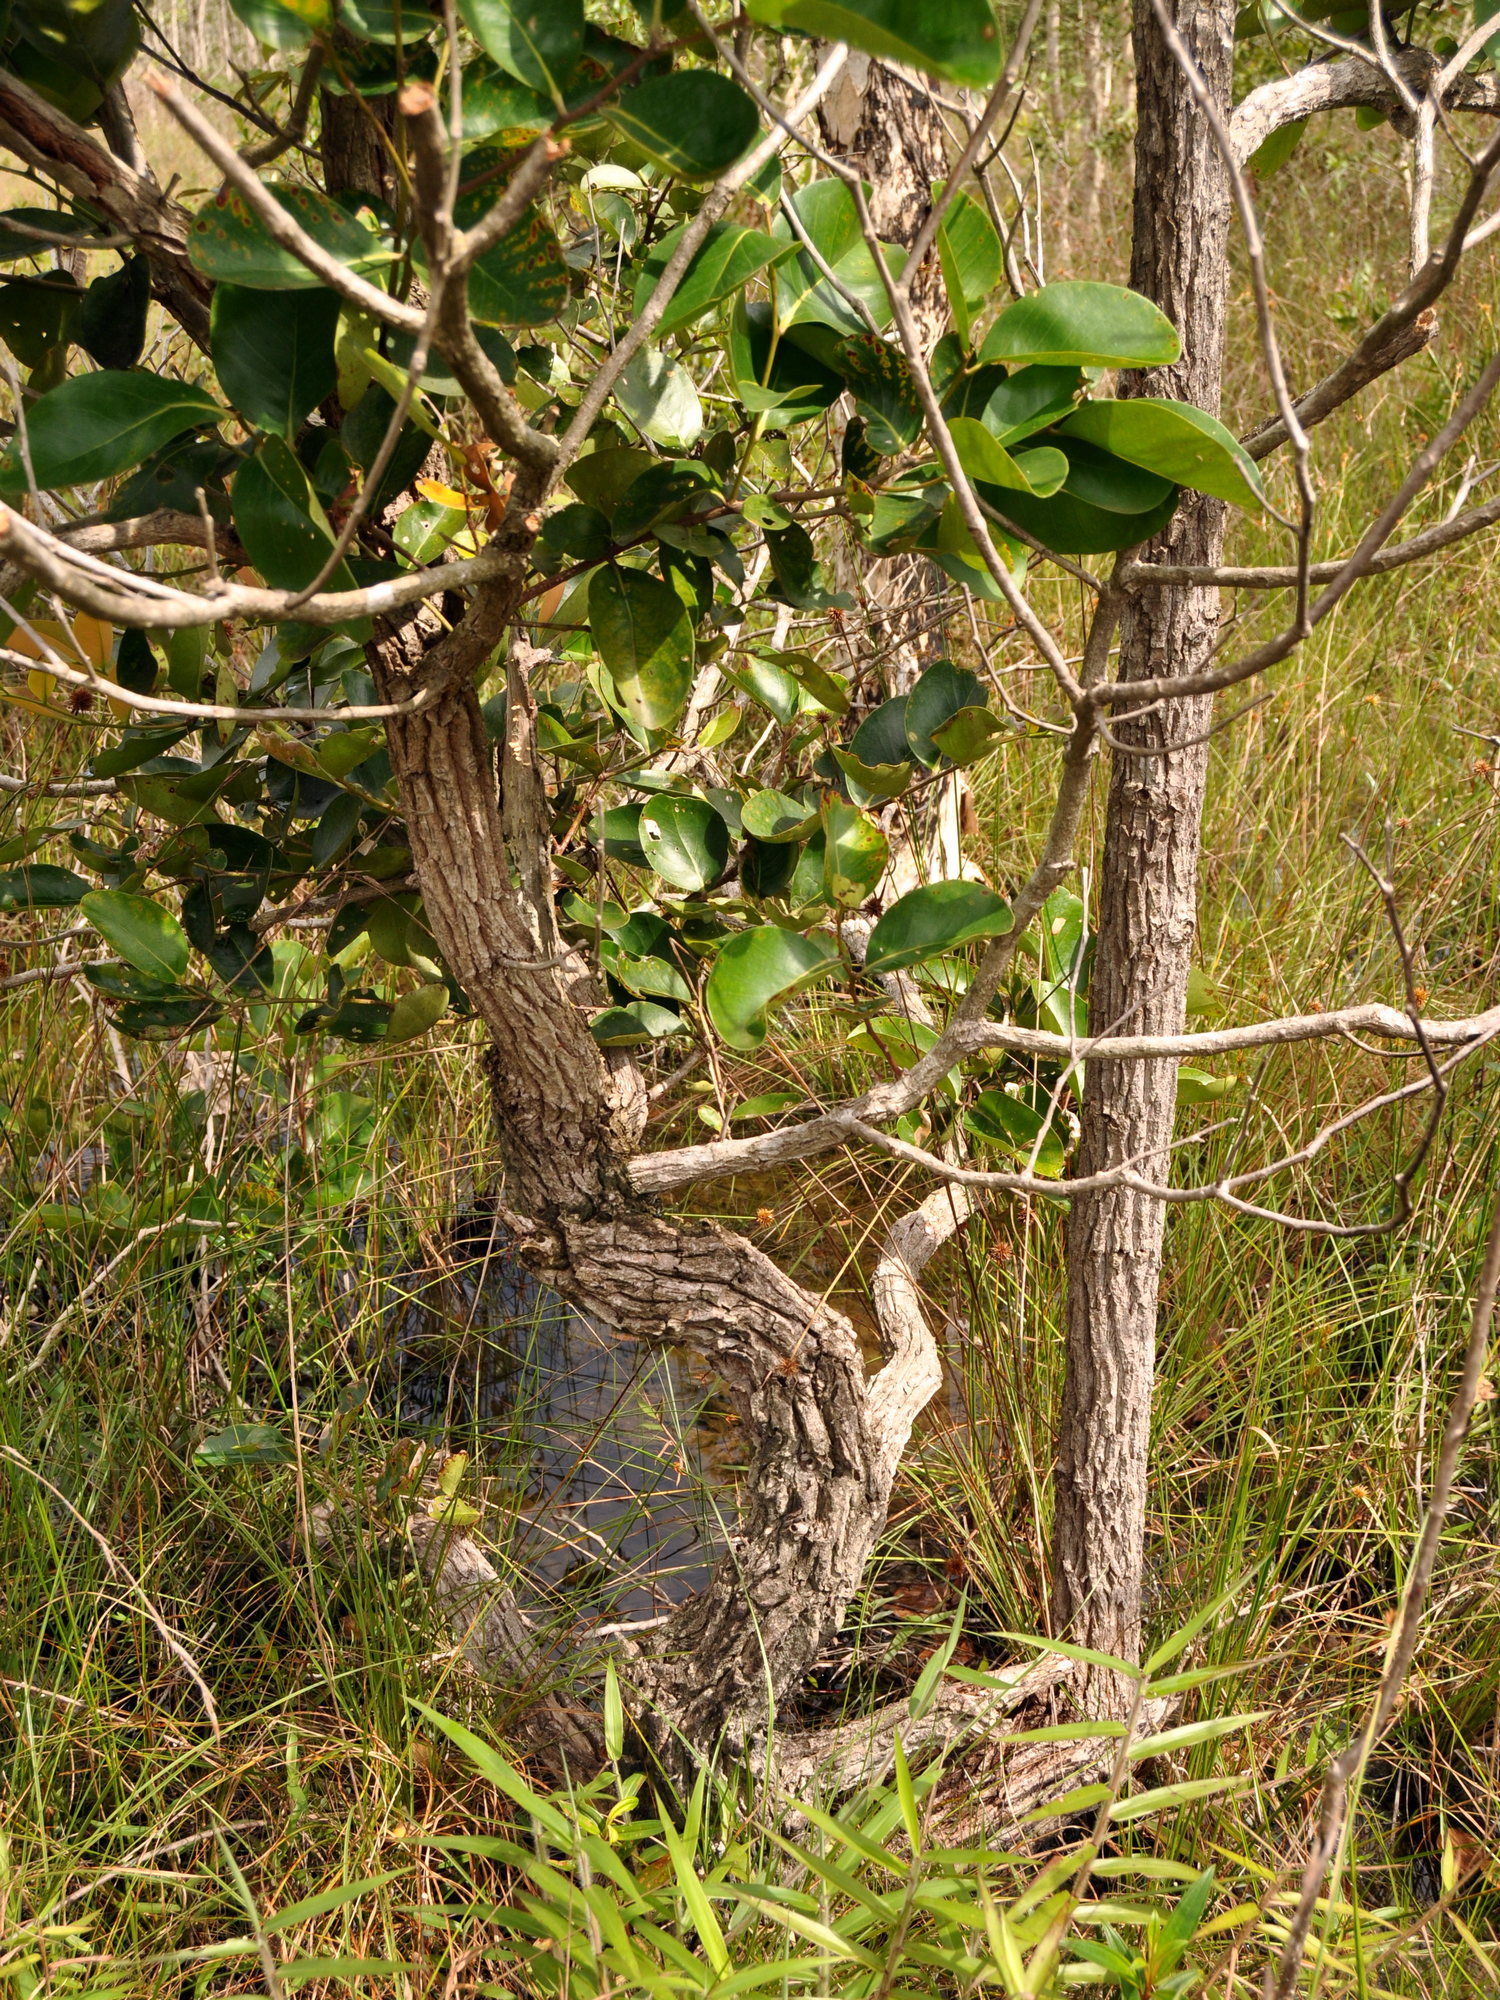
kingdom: Plantae
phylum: Tracheophyta
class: Magnoliopsida
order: Cucurbitales
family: Anisophylleaceae
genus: Combretocarpus
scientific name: Combretocarpus rotundatus
